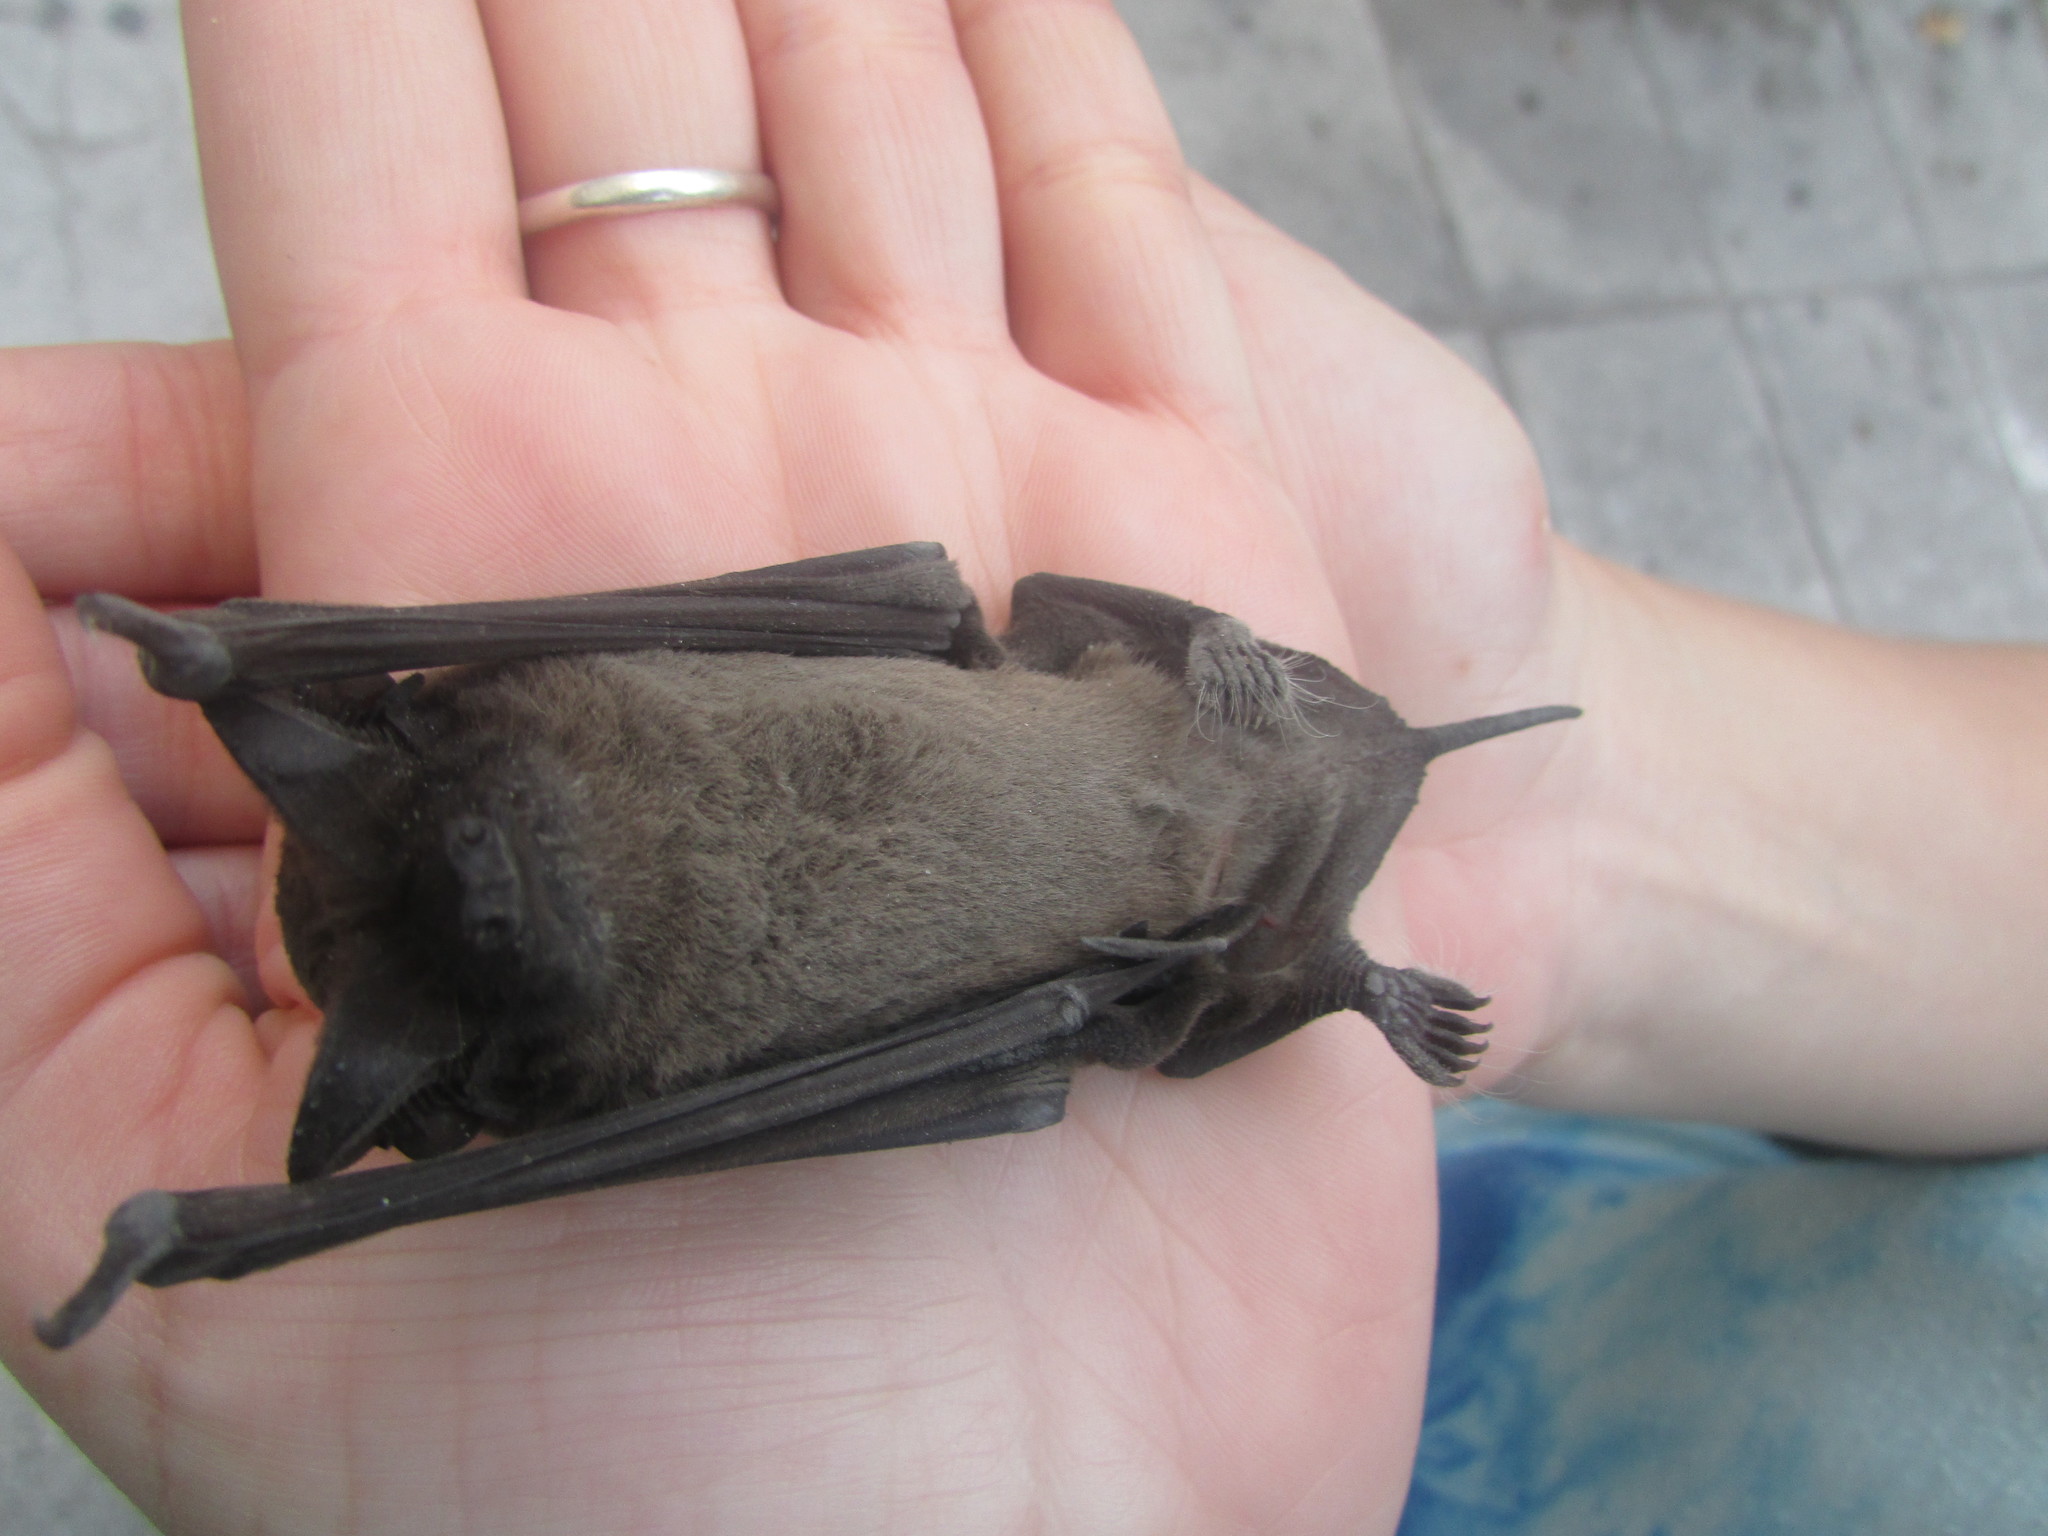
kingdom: Animalia
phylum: Chordata
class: Mammalia
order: Chiroptera
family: Molossidae
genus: Tadarida
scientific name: Tadarida brasiliensis
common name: Mexican free-tailed bat
